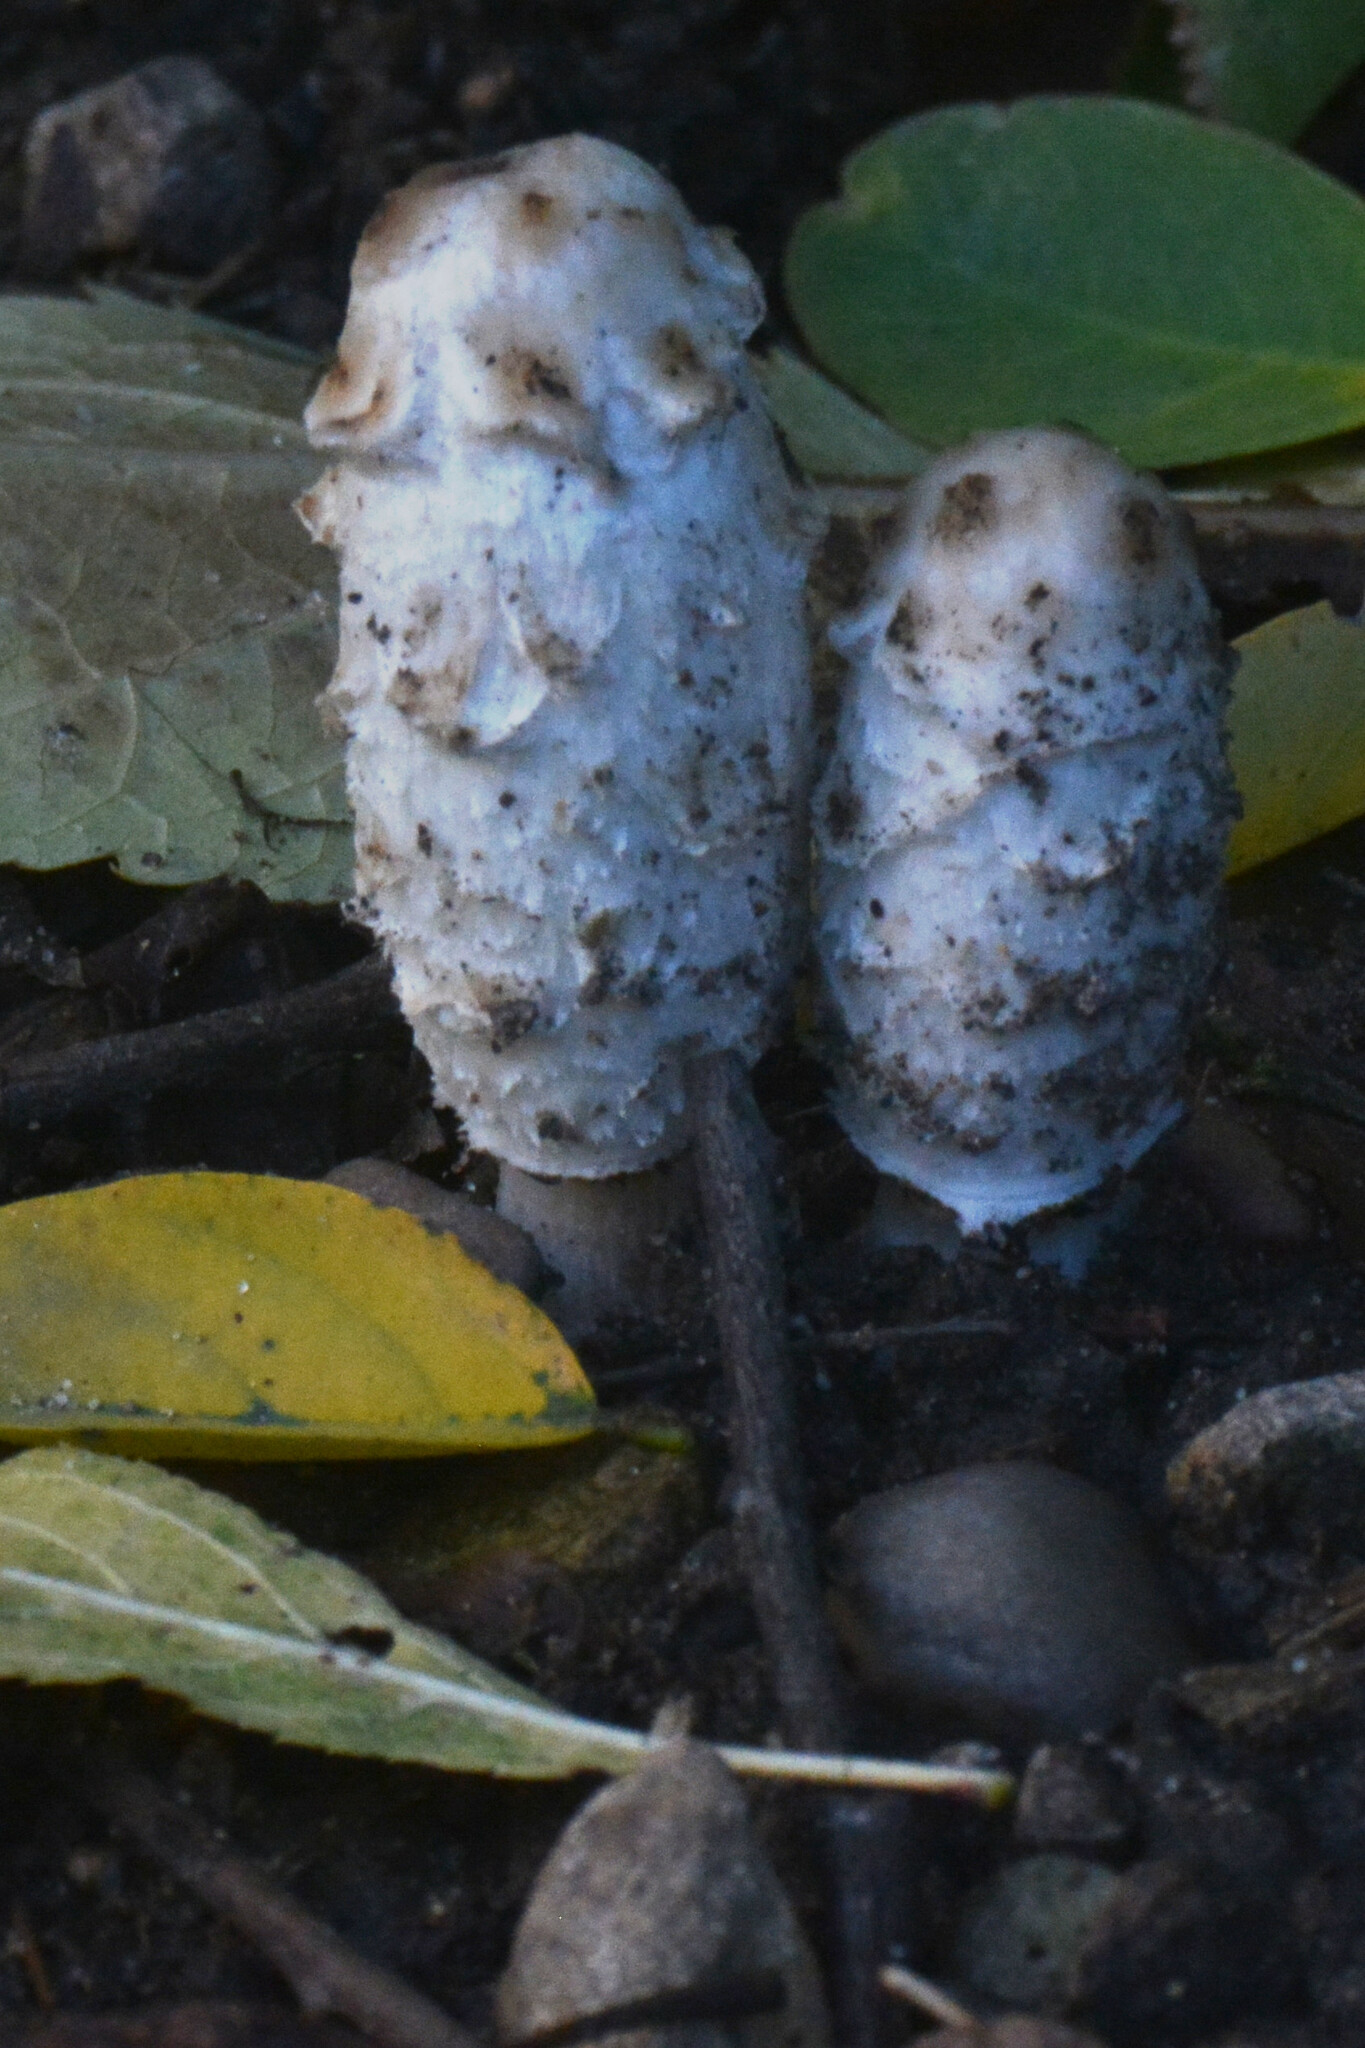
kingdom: Fungi
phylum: Basidiomycota
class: Agaricomycetes
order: Agaricales
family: Agaricaceae
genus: Coprinus
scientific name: Coprinus comatus
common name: Lawyer's wig
